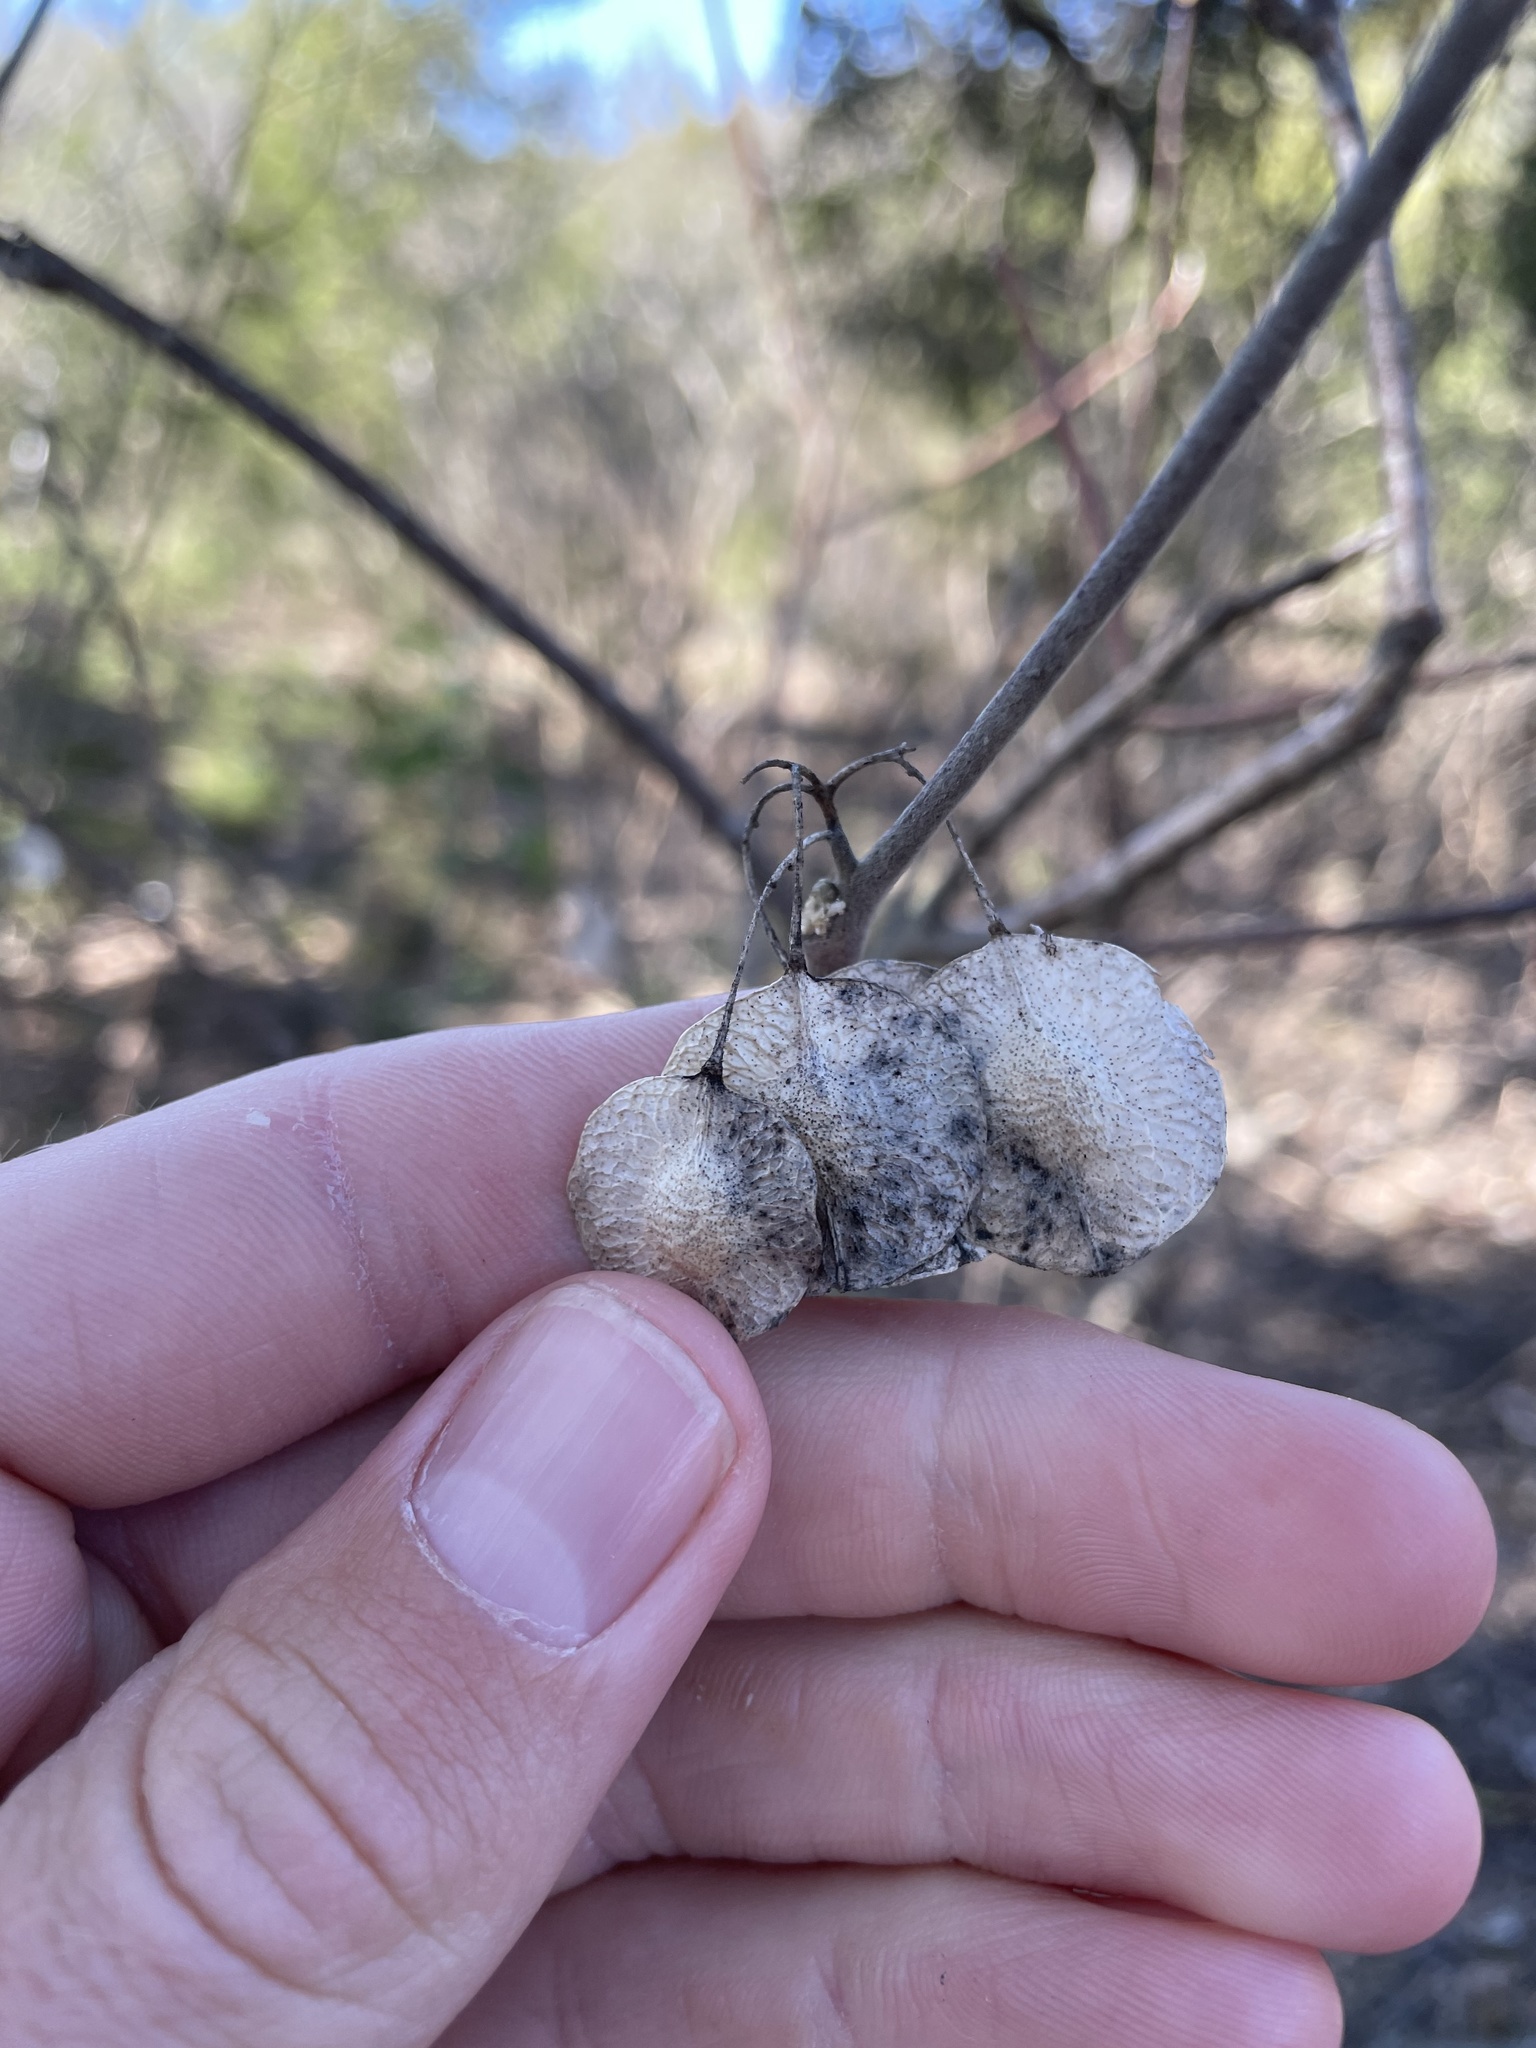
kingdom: Plantae
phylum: Tracheophyta
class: Magnoliopsida
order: Sapindales
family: Rutaceae
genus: Ptelea
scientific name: Ptelea trifoliata
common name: Common hop-tree
